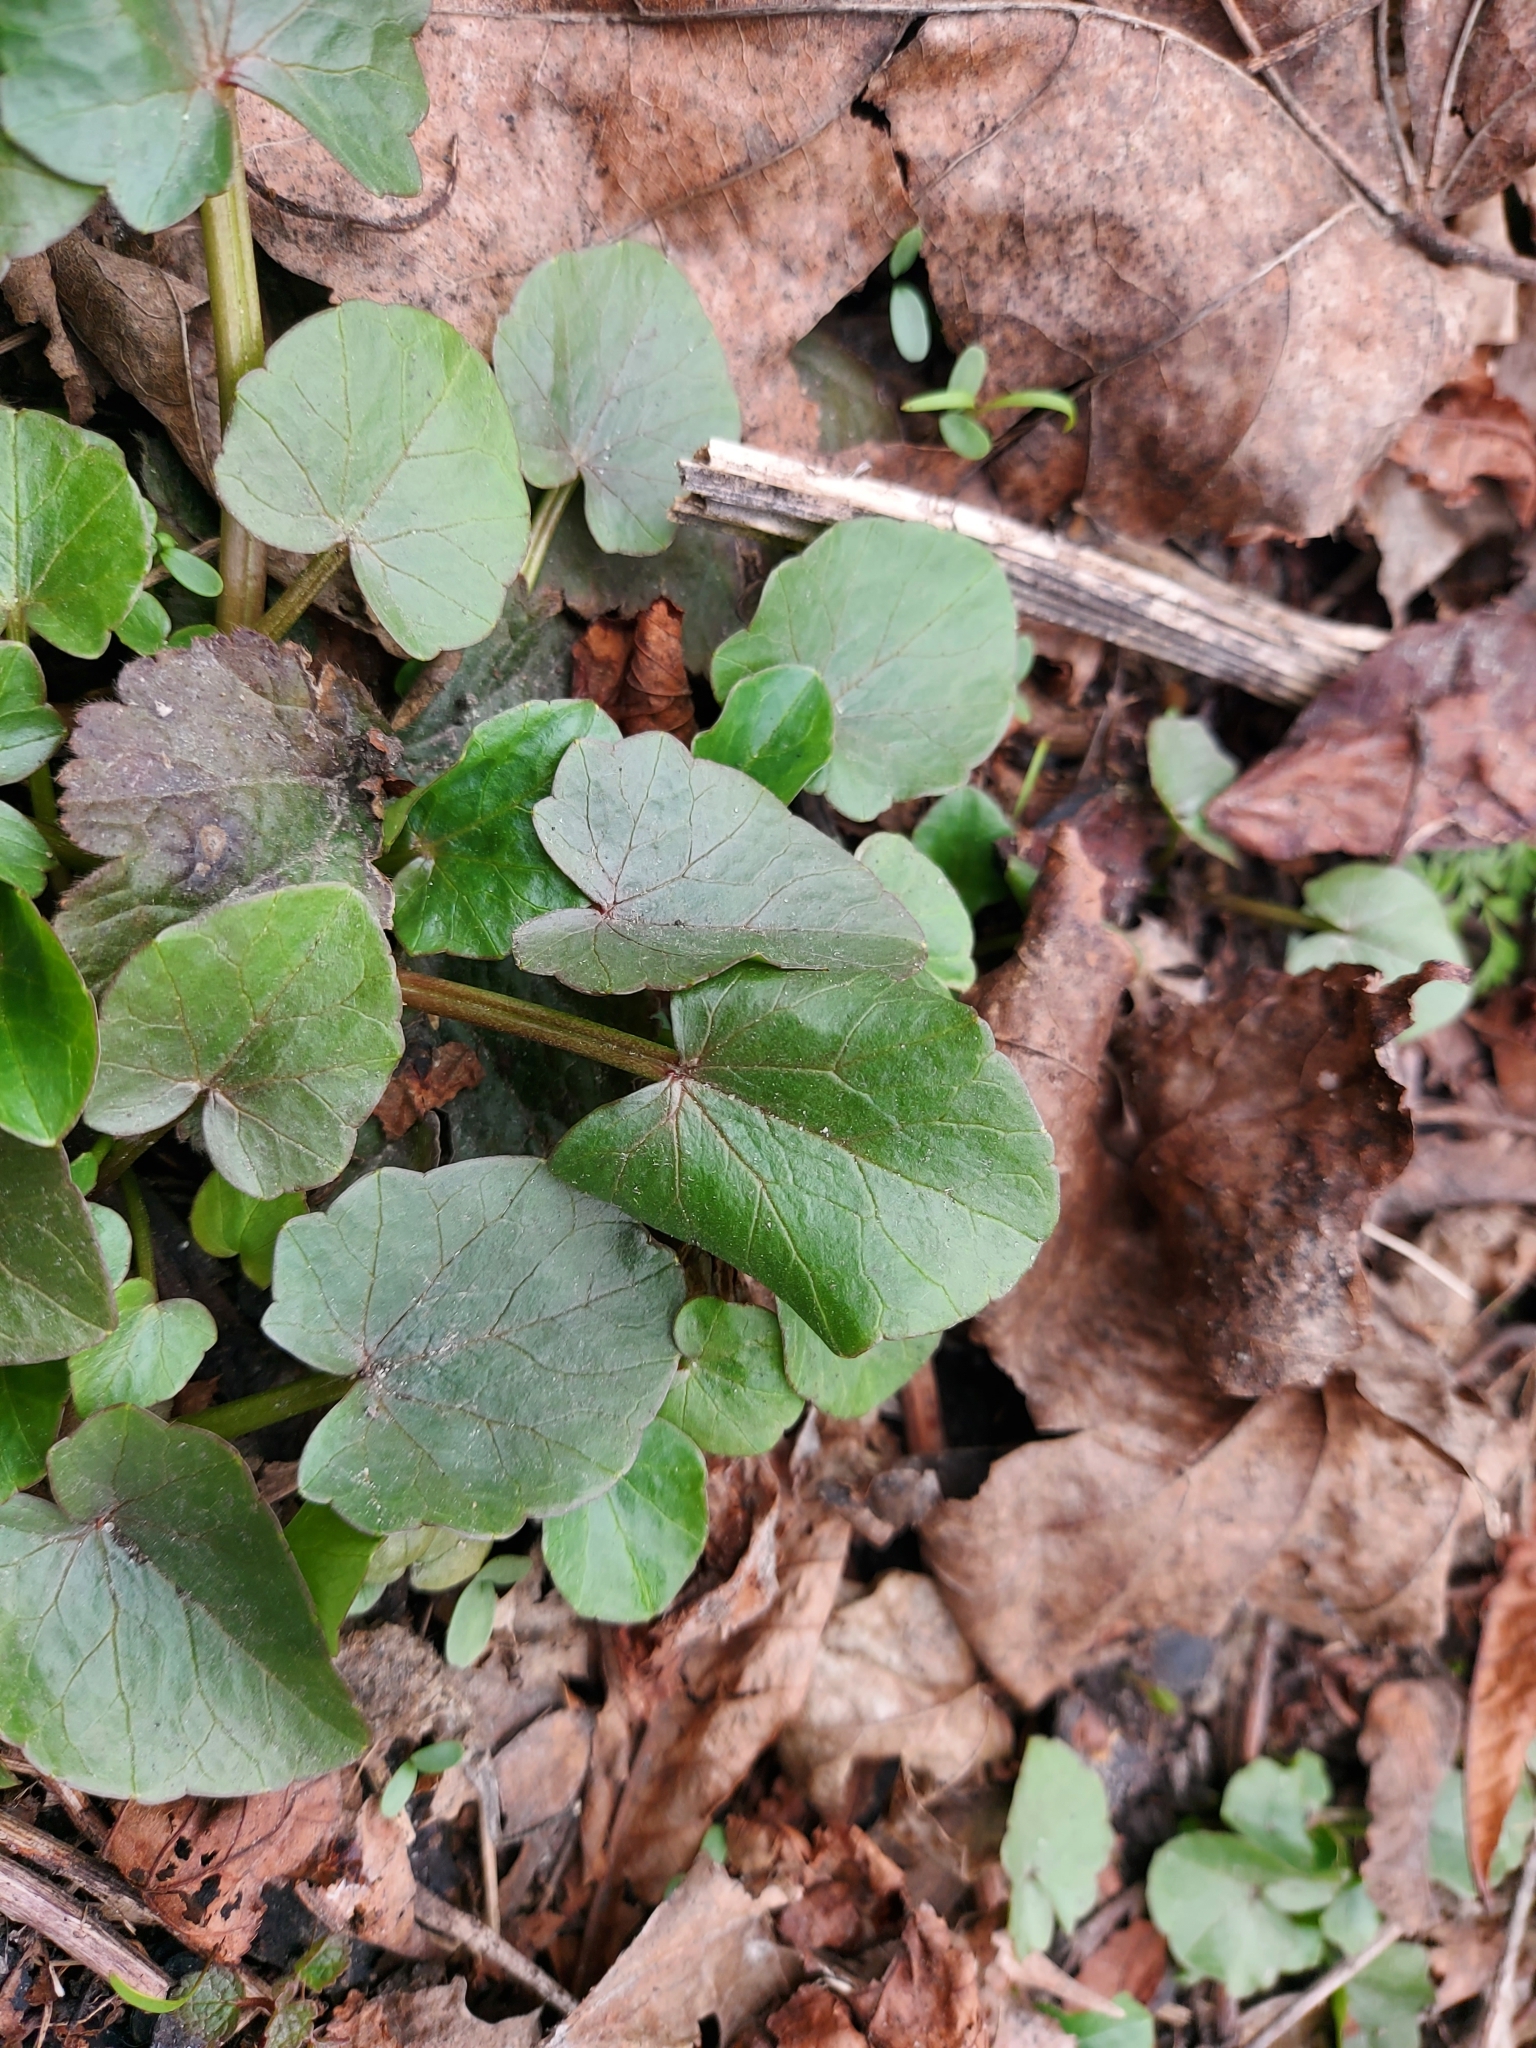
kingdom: Plantae
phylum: Tracheophyta
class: Magnoliopsida
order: Ranunculales
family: Ranunculaceae
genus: Ficaria
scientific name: Ficaria verna
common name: Lesser celandine
